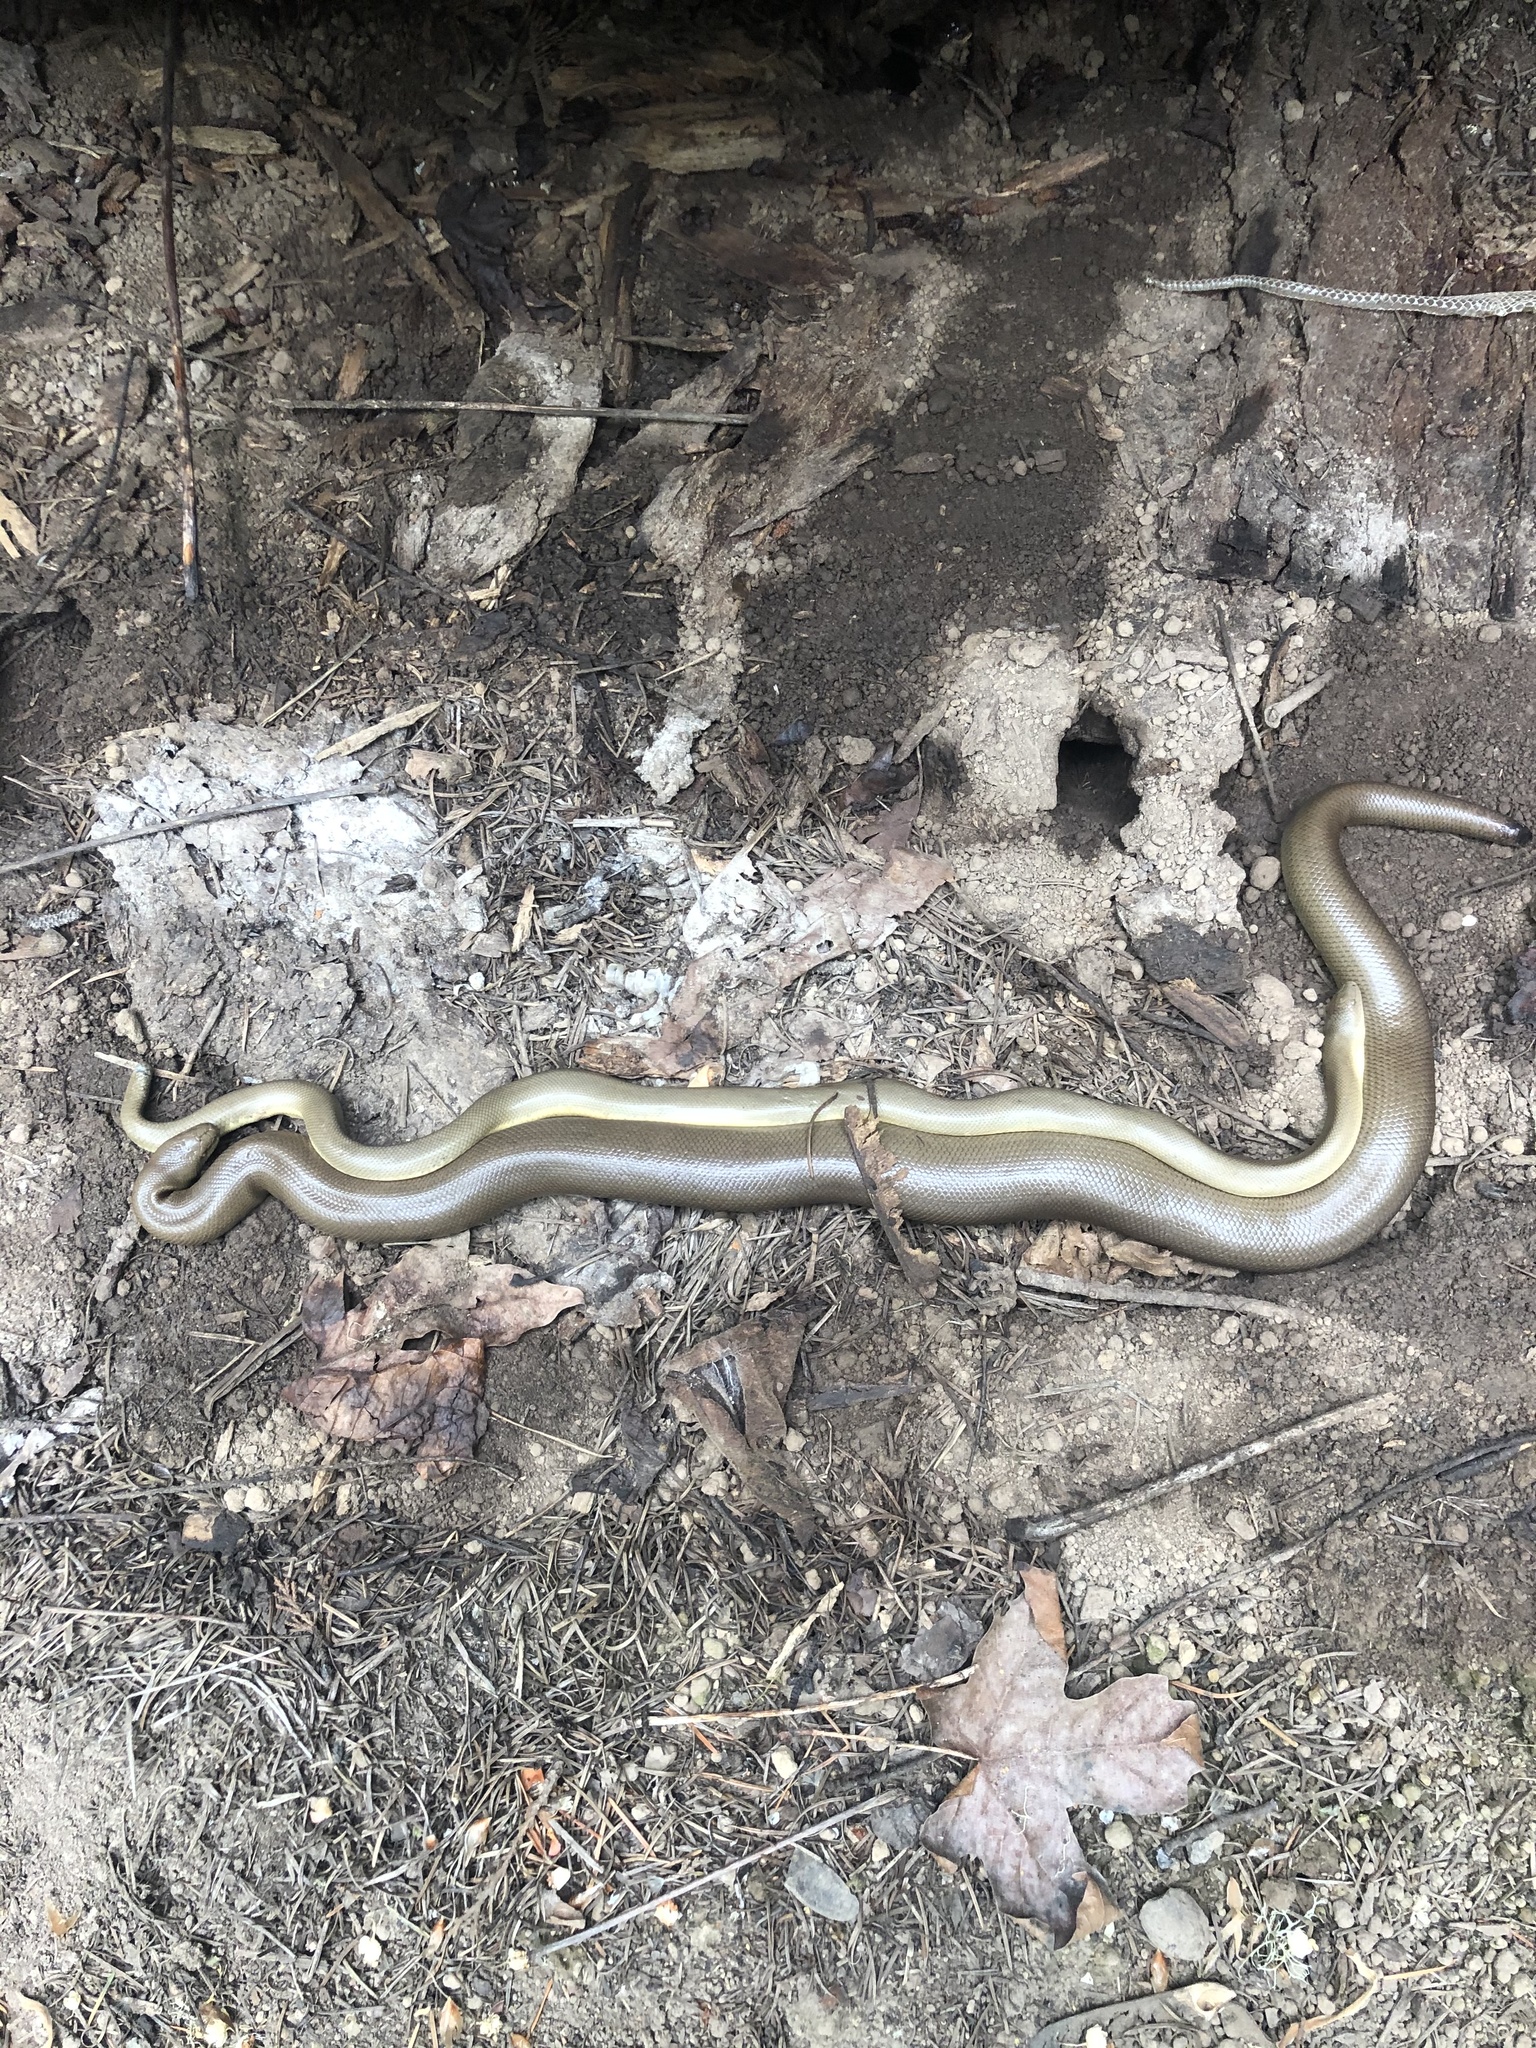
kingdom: Animalia
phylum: Chordata
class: Squamata
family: Boidae
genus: Charina
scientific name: Charina bottae
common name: Northern rubber boa
